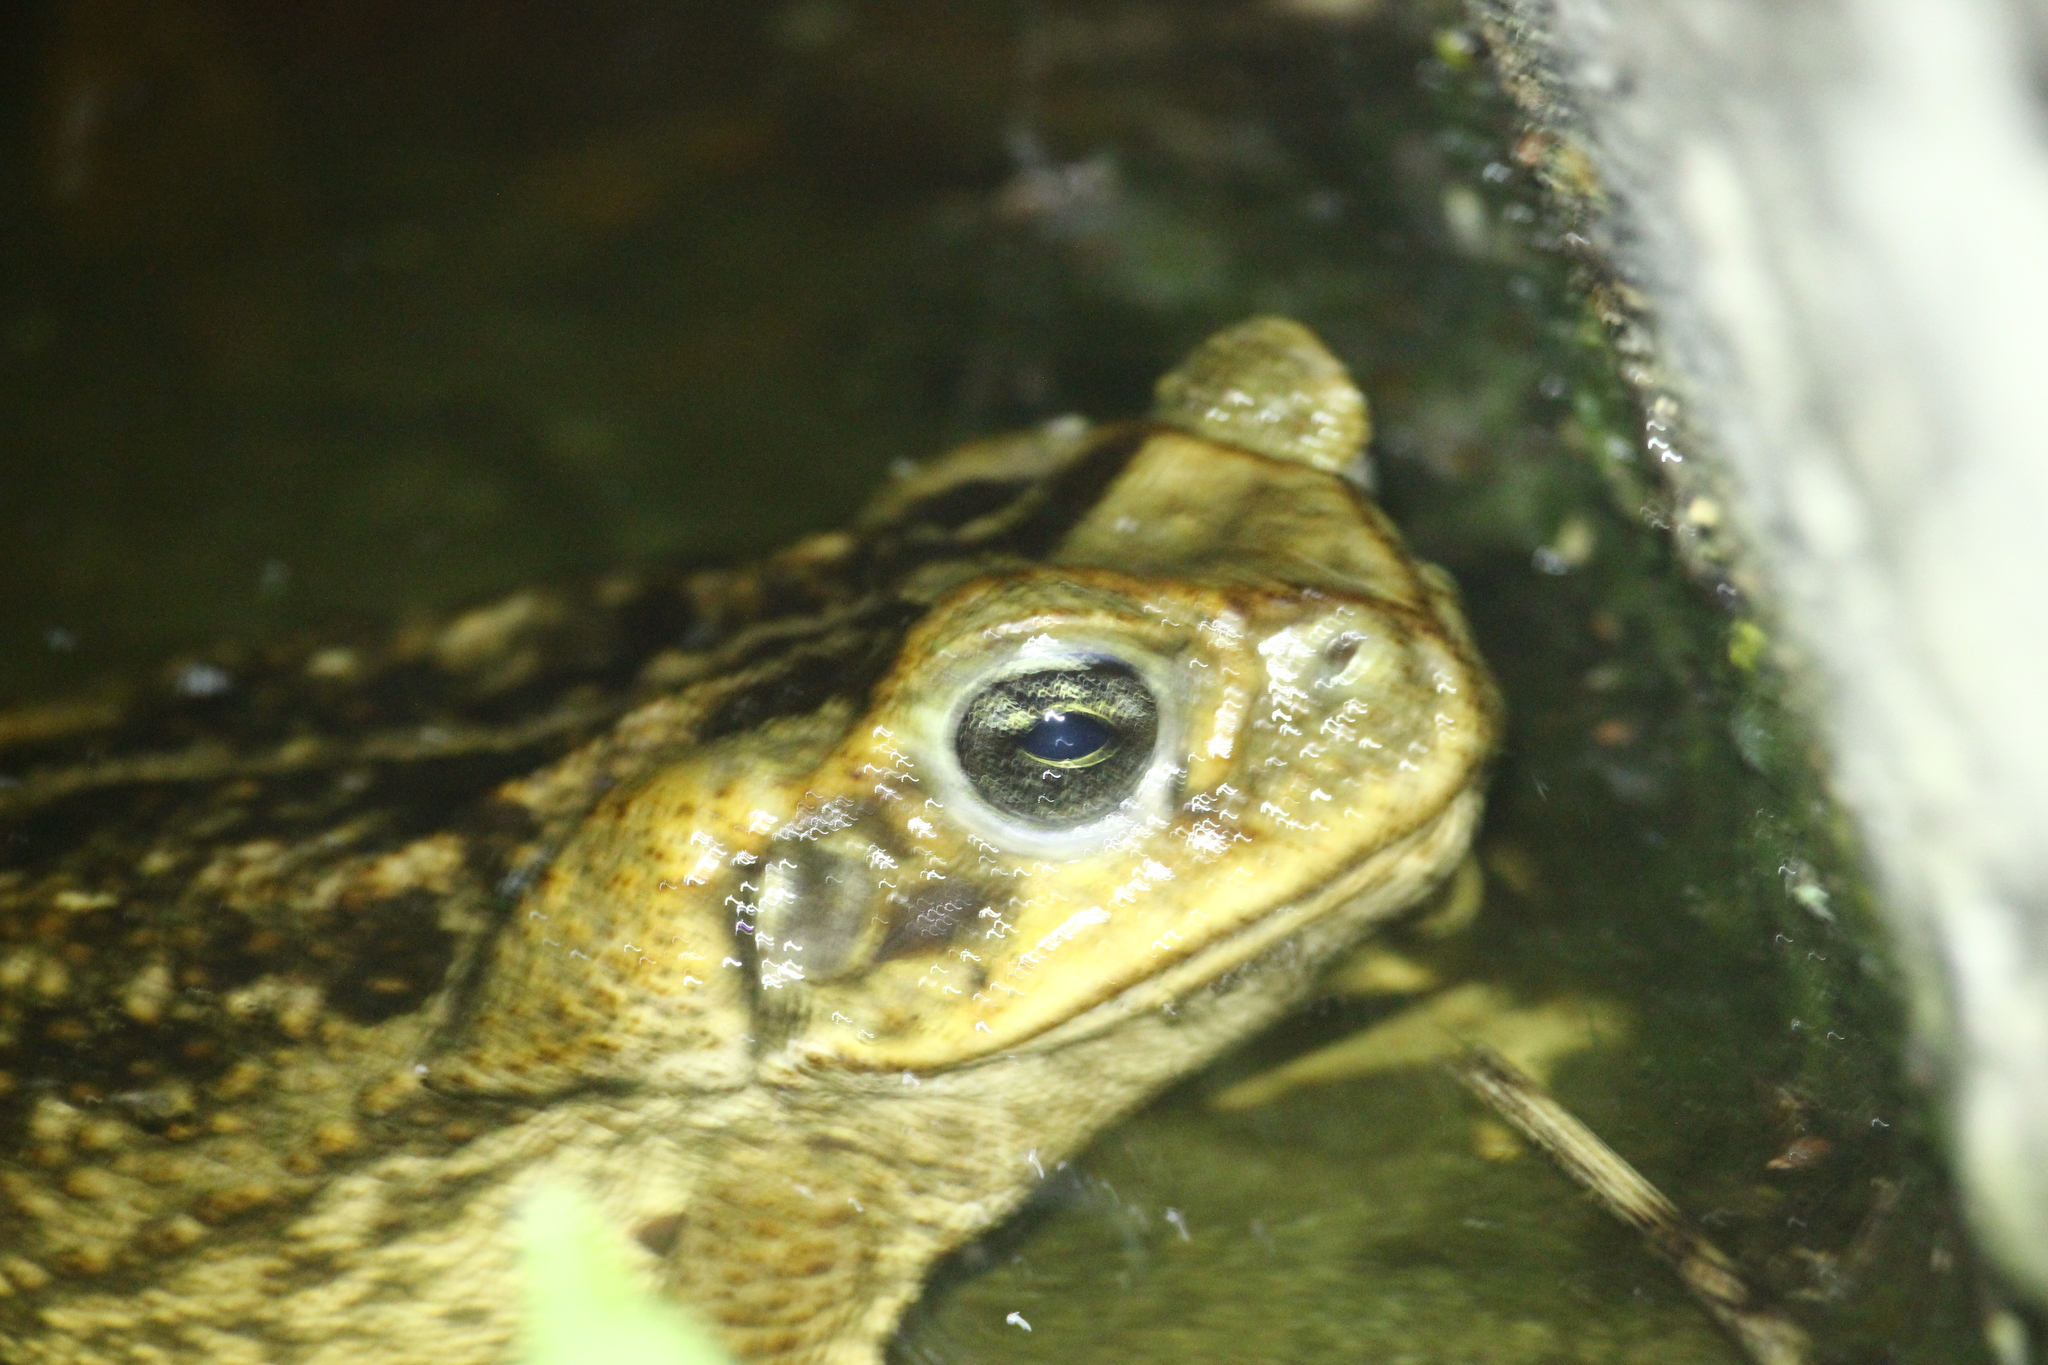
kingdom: Animalia
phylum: Chordata
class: Amphibia
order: Anura
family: Bufonidae
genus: Rhinella
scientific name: Rhinella marina
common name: Cane toad
